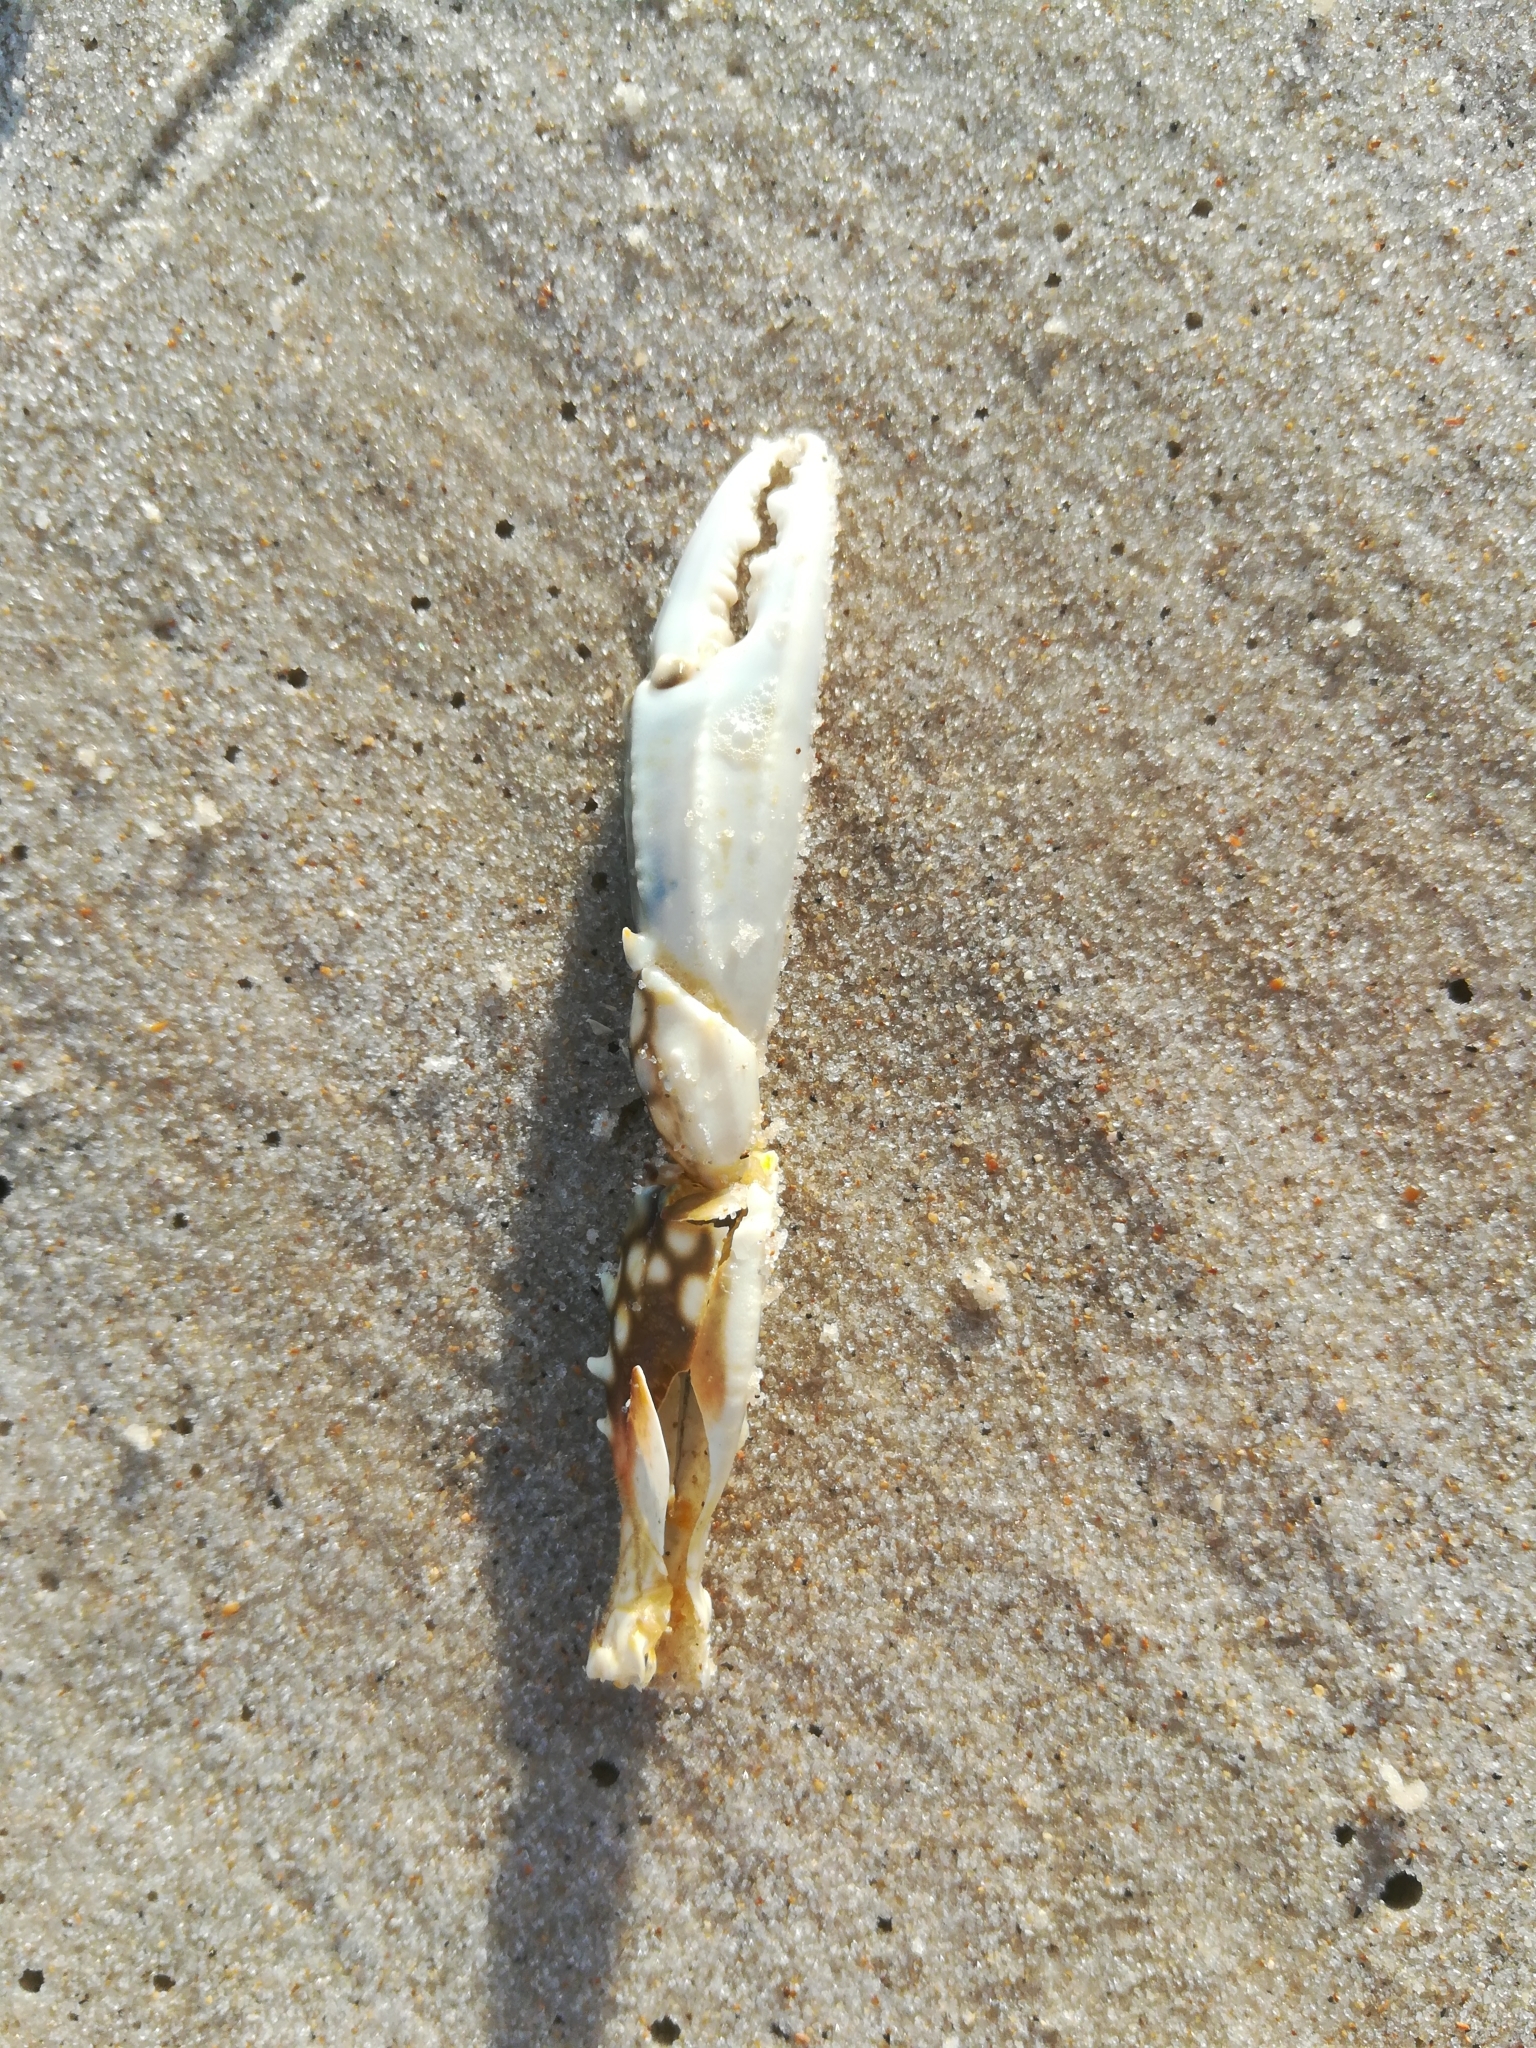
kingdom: Animalia
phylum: Arthropoda
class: Malacostraca
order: Decapoda
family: Portunidae
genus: Arenaeus
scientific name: Arenaeus cribrarius
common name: Speckled crab
